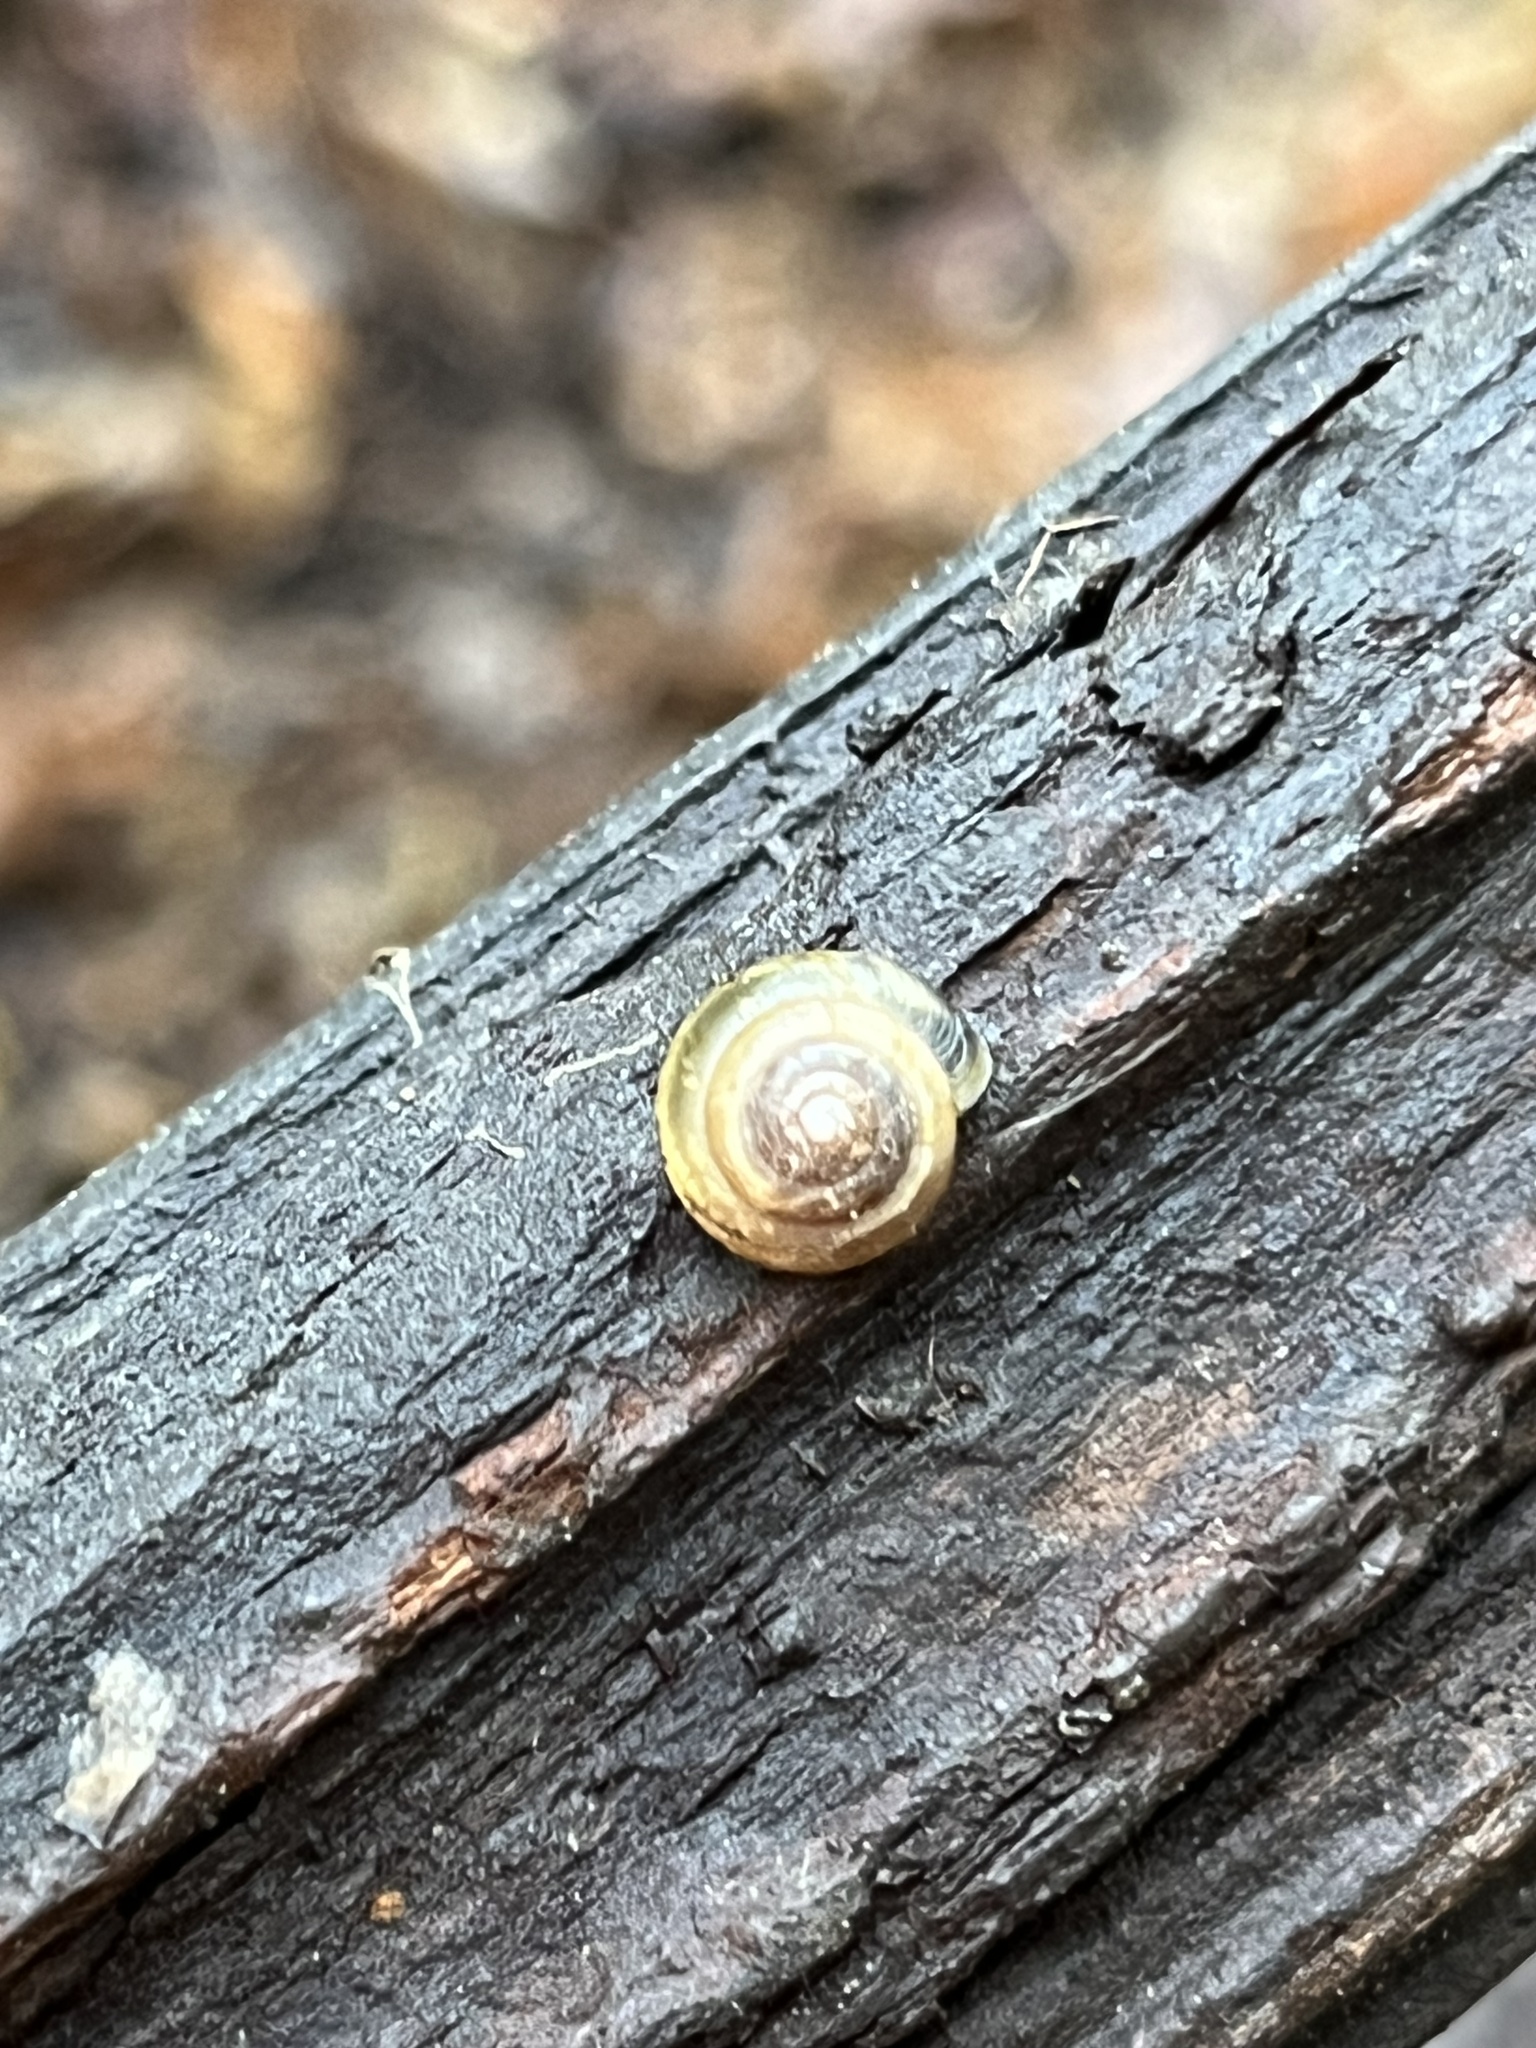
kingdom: Animalia
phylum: Mollusca
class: Gastropoda
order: Stylommatophora
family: Gastrodontidae
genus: Ventridens
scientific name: Ventridens ligera
